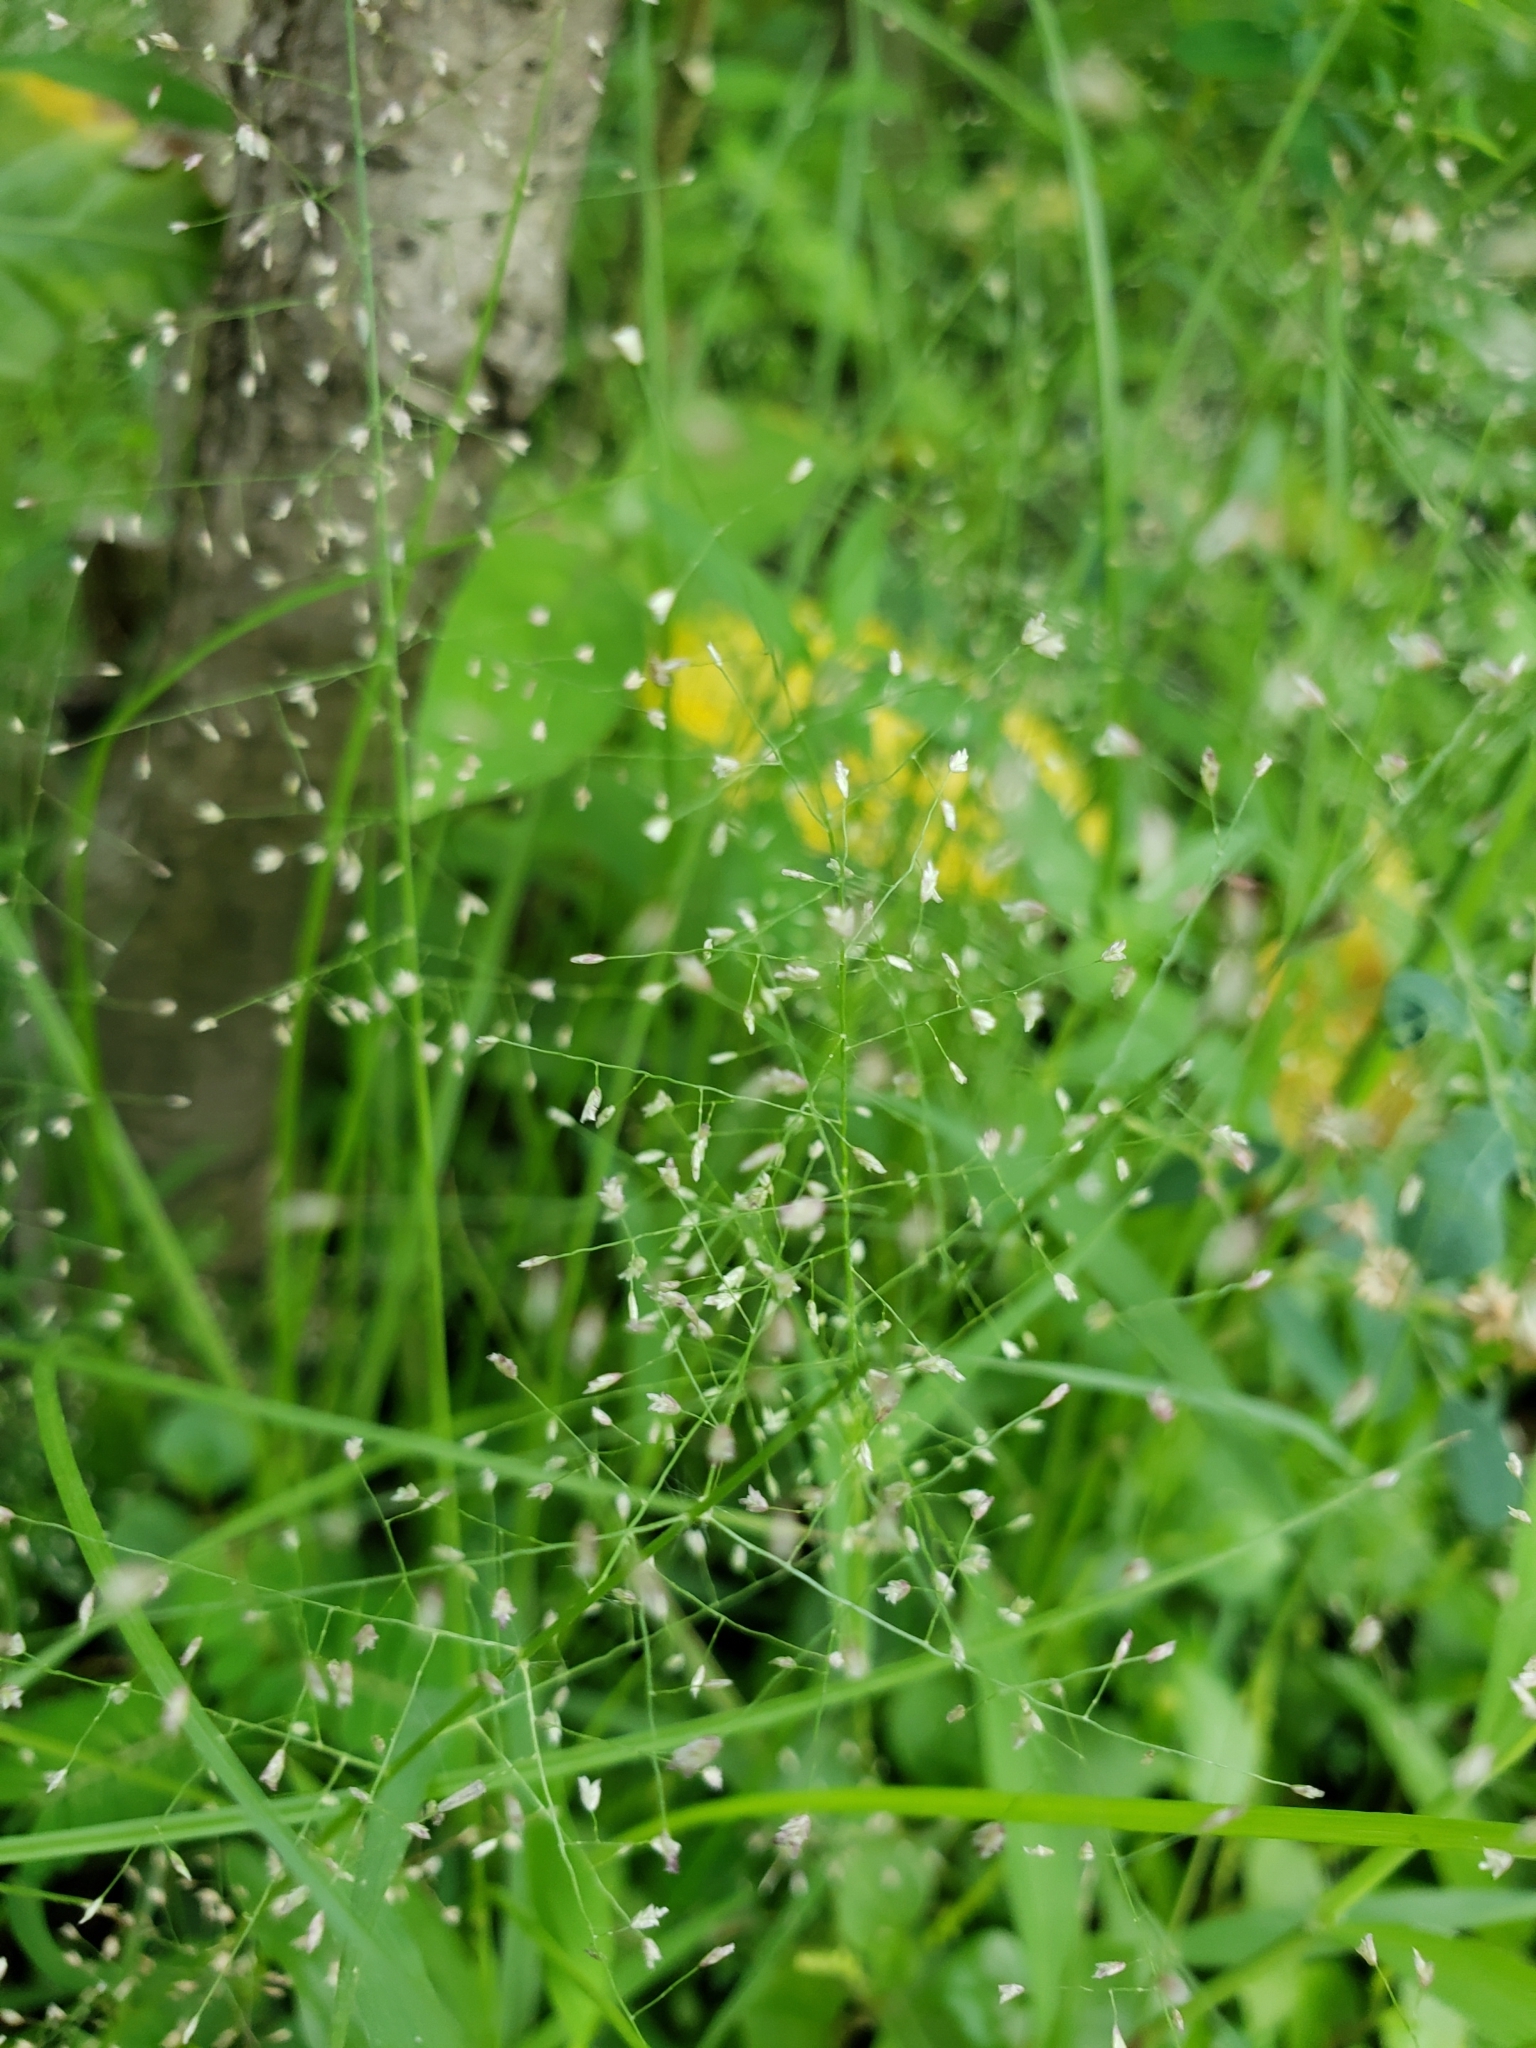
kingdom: Plantae
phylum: Tracheophyta
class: Liliopsida
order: Poales
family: Poaceae
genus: Eragrostis
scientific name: Eragrostis tenella
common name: Japanese lovegrass
